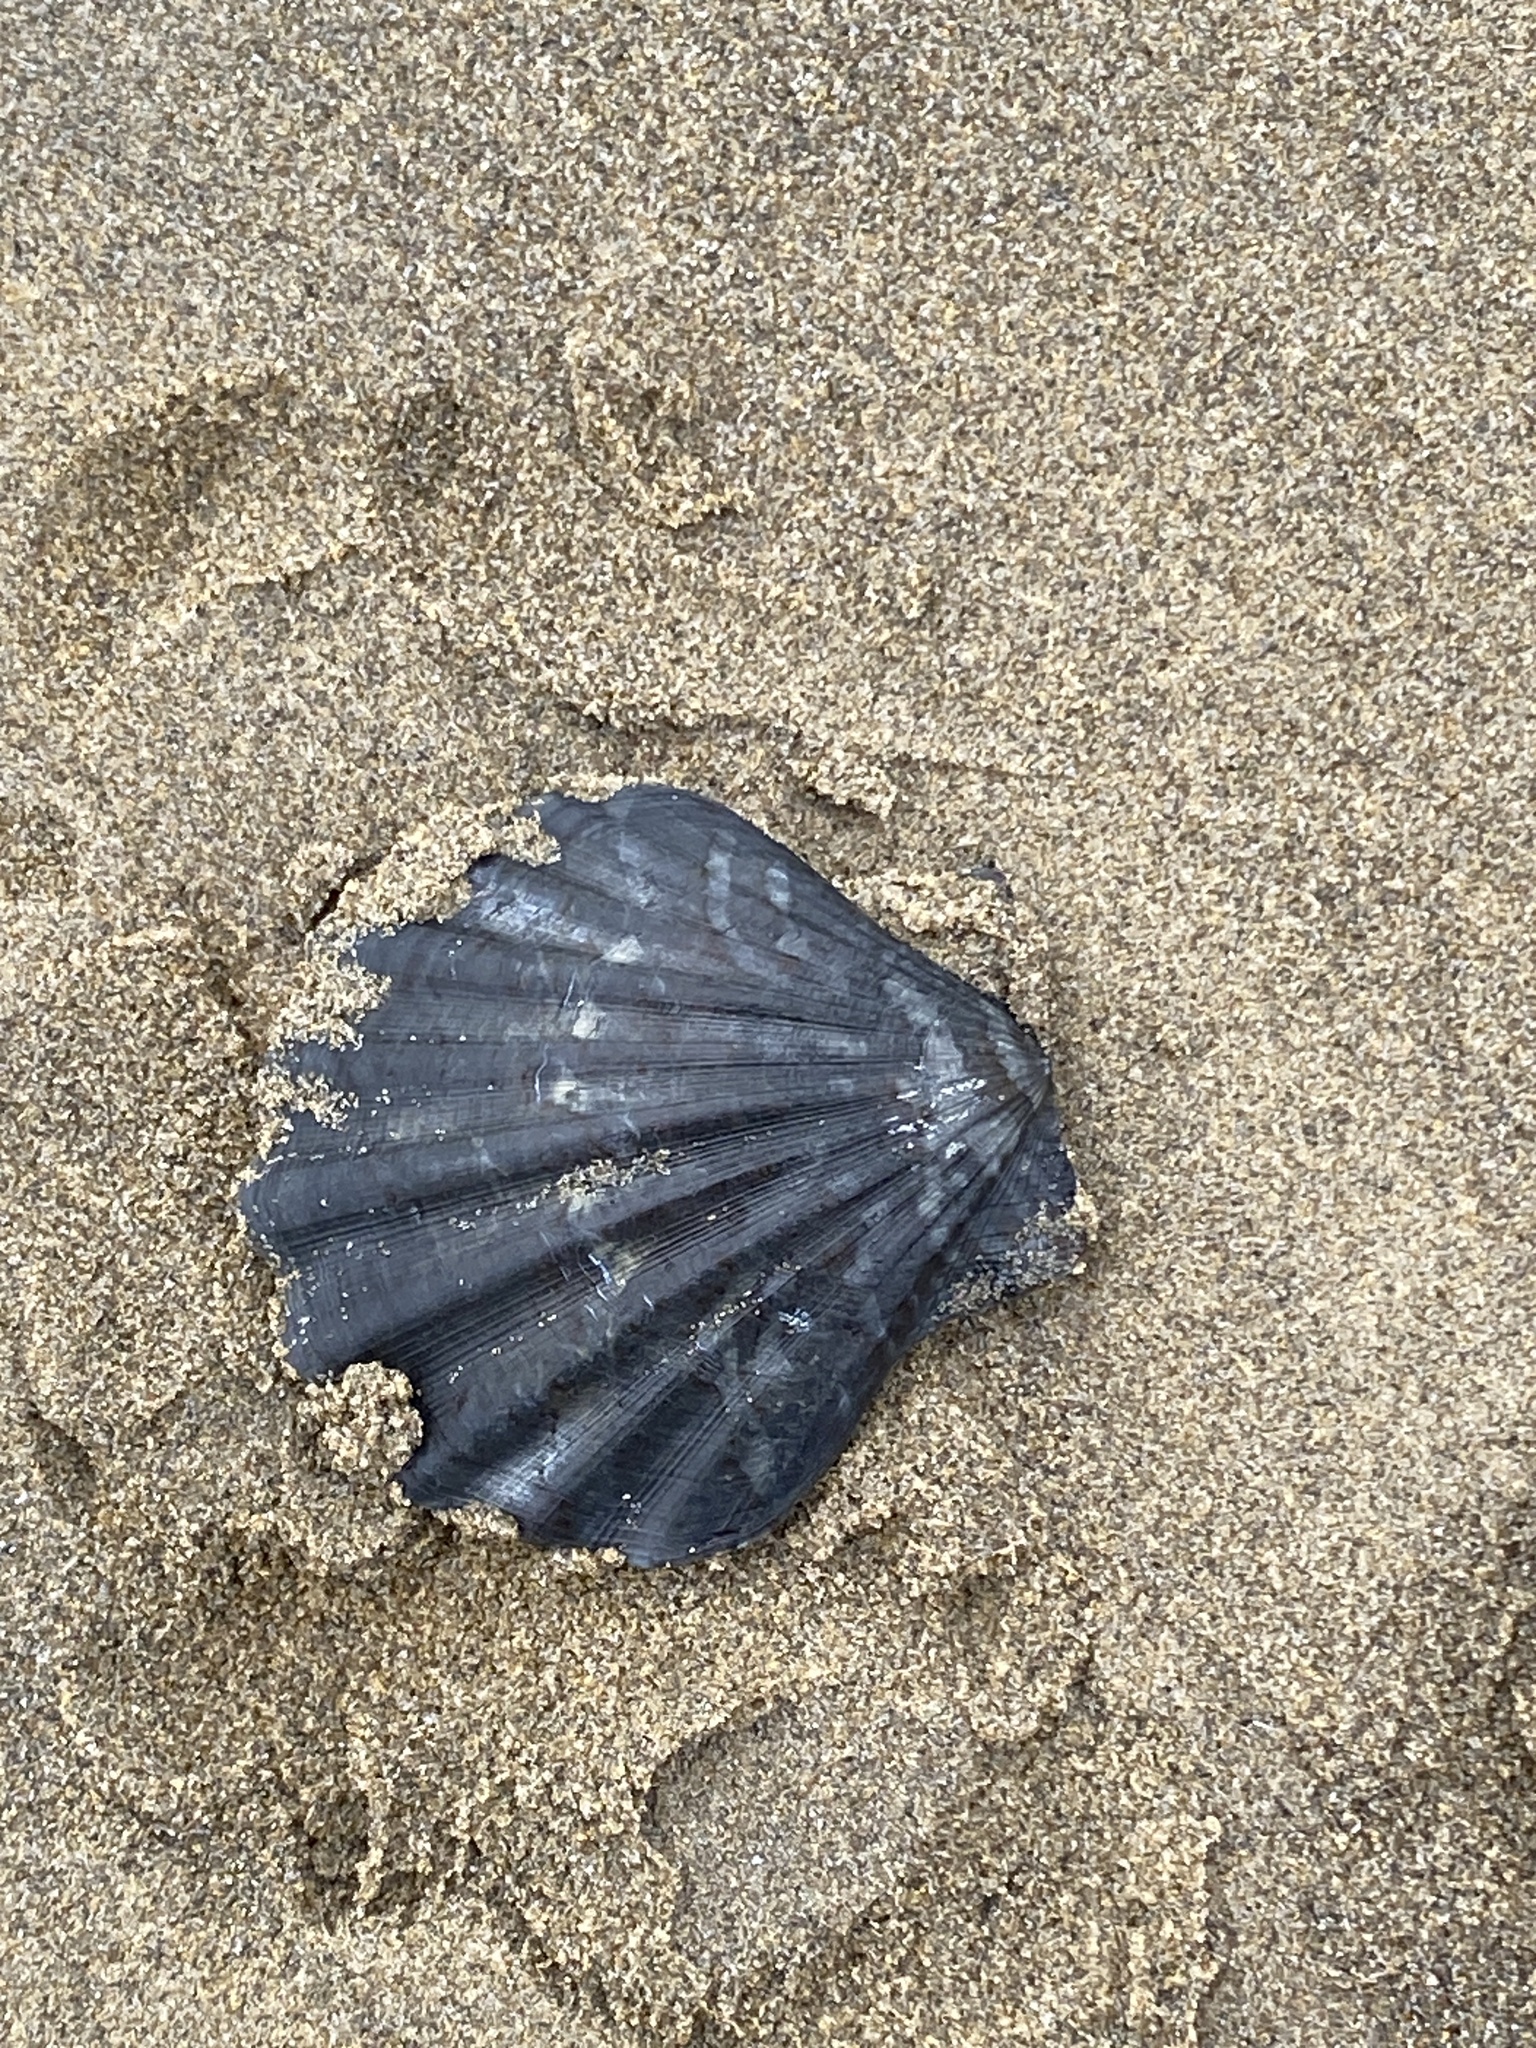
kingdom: Animalia
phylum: Mollusca
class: Bivalvia
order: Pectinida
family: Pectinidae
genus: Flexopecten
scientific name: Flexopecten glaber
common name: Smooth scallop
